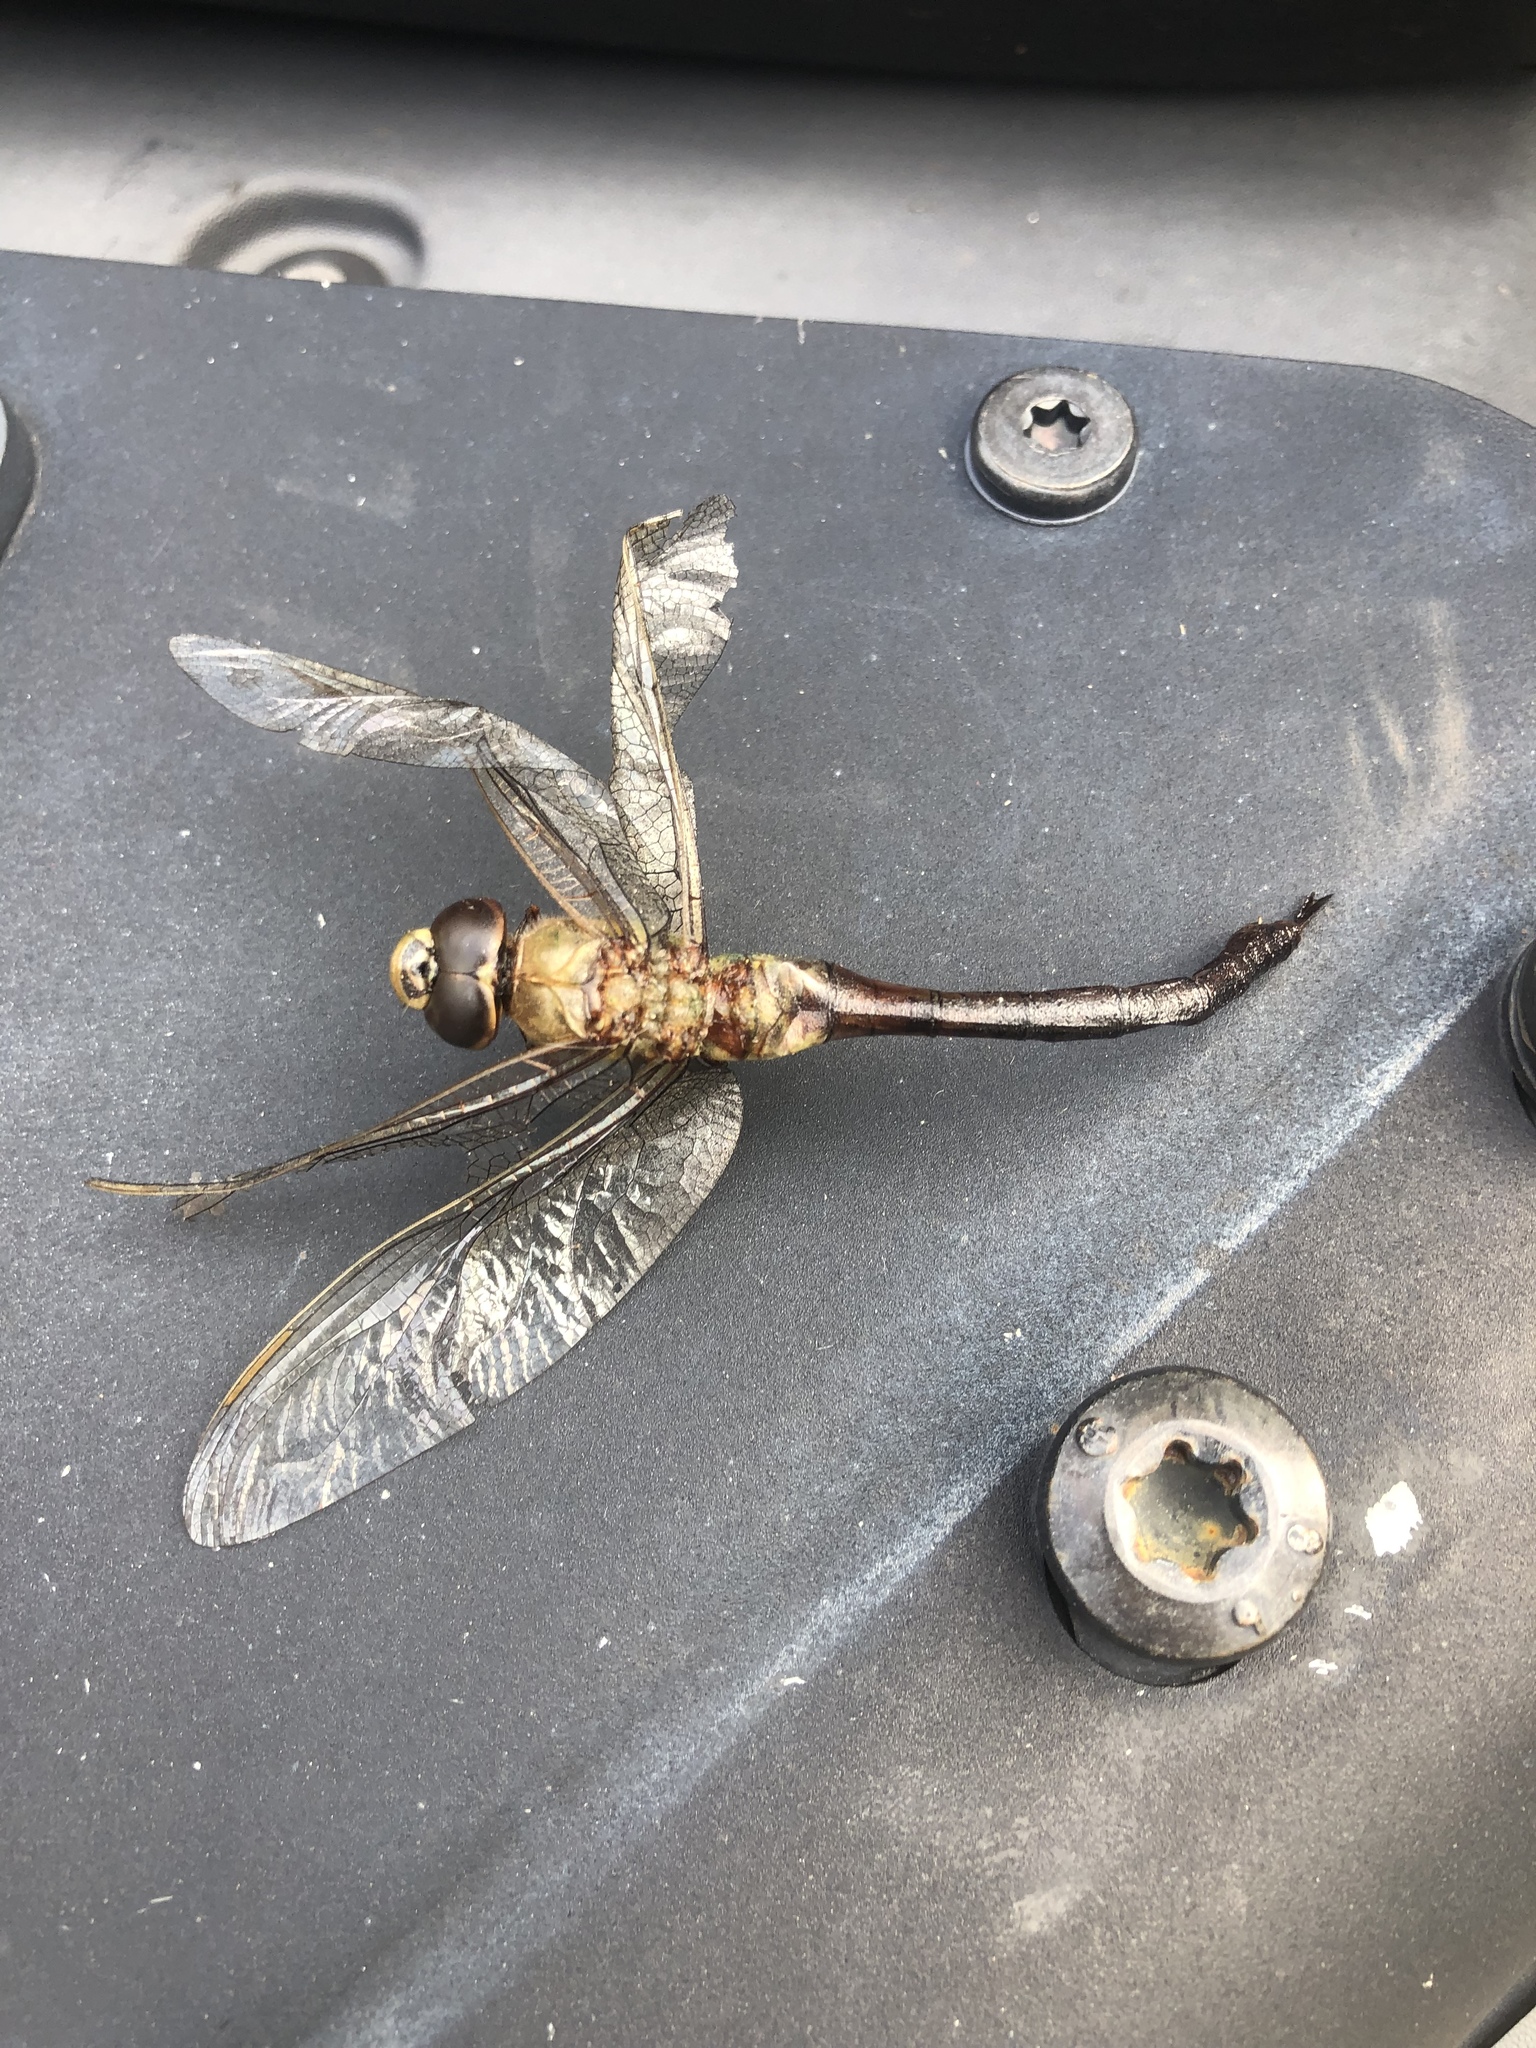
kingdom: Animalia
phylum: Arthropoda
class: Insecta
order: Odonata
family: Aeshnidae
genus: Anax
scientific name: Anax junius
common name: Common green darner
